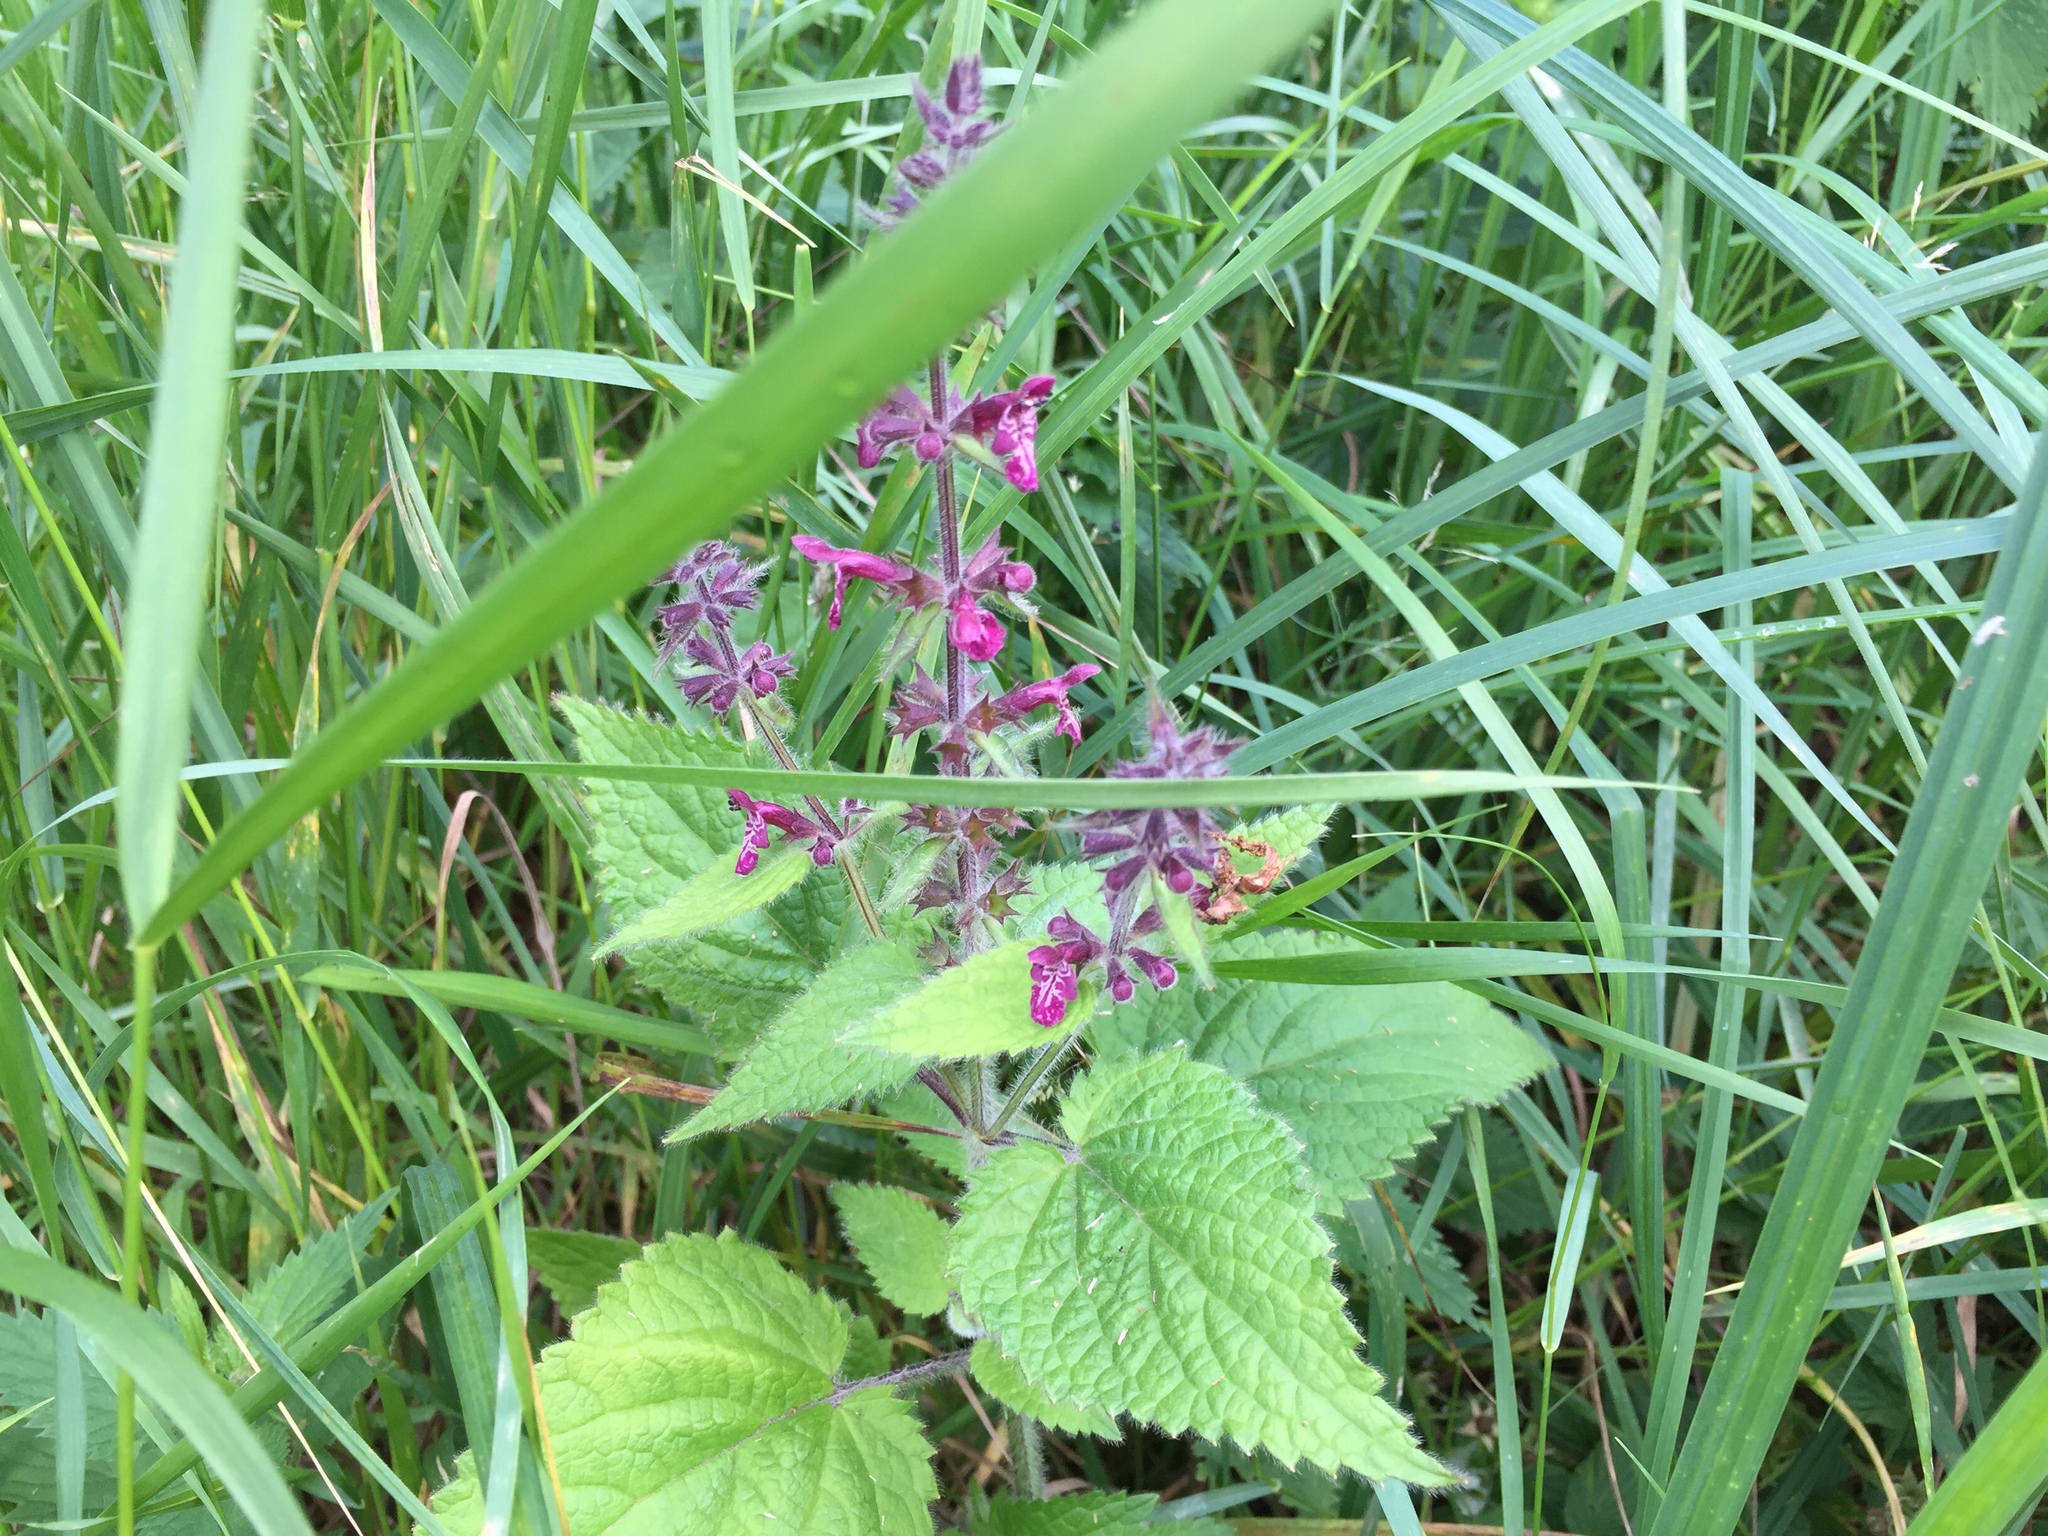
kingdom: Plantae
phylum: Tracheophyta
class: Magnoliopsida
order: Lamiales
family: Lamiaceae
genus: Stachys
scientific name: Stachys sylvatica
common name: Hedge woundwort
